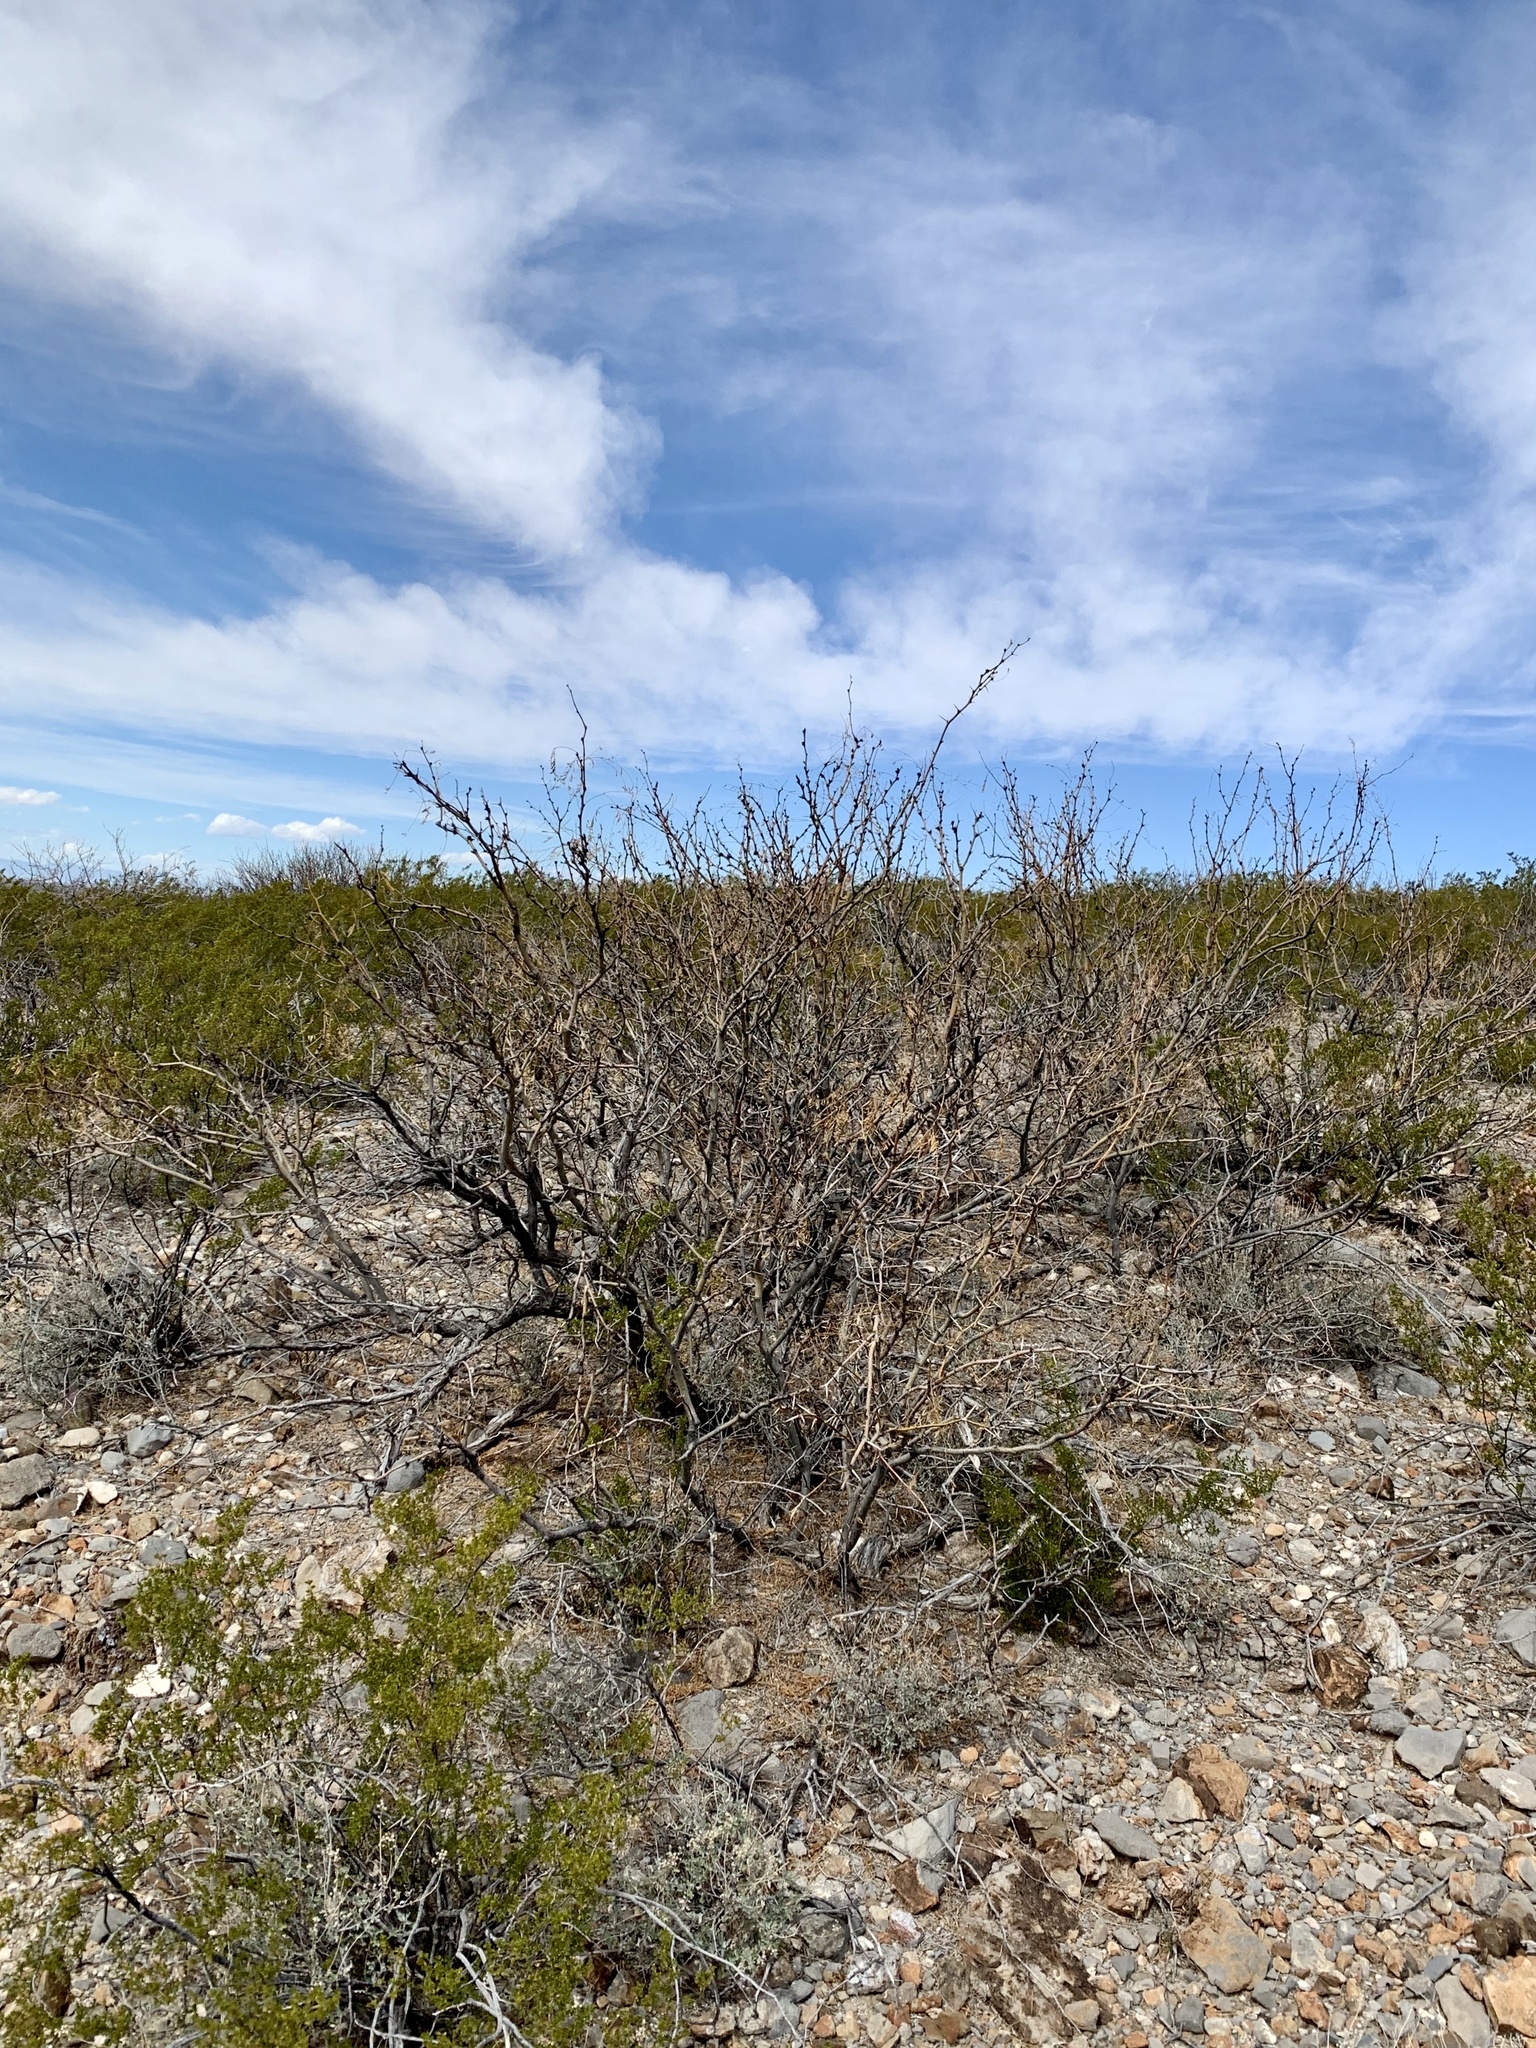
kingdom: Plantae
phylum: Tracheophyta
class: Magnoliopsida
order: Fabales
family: Fabaceae
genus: Prosopis
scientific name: Prosopis glandulosa
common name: Honey mesquite
